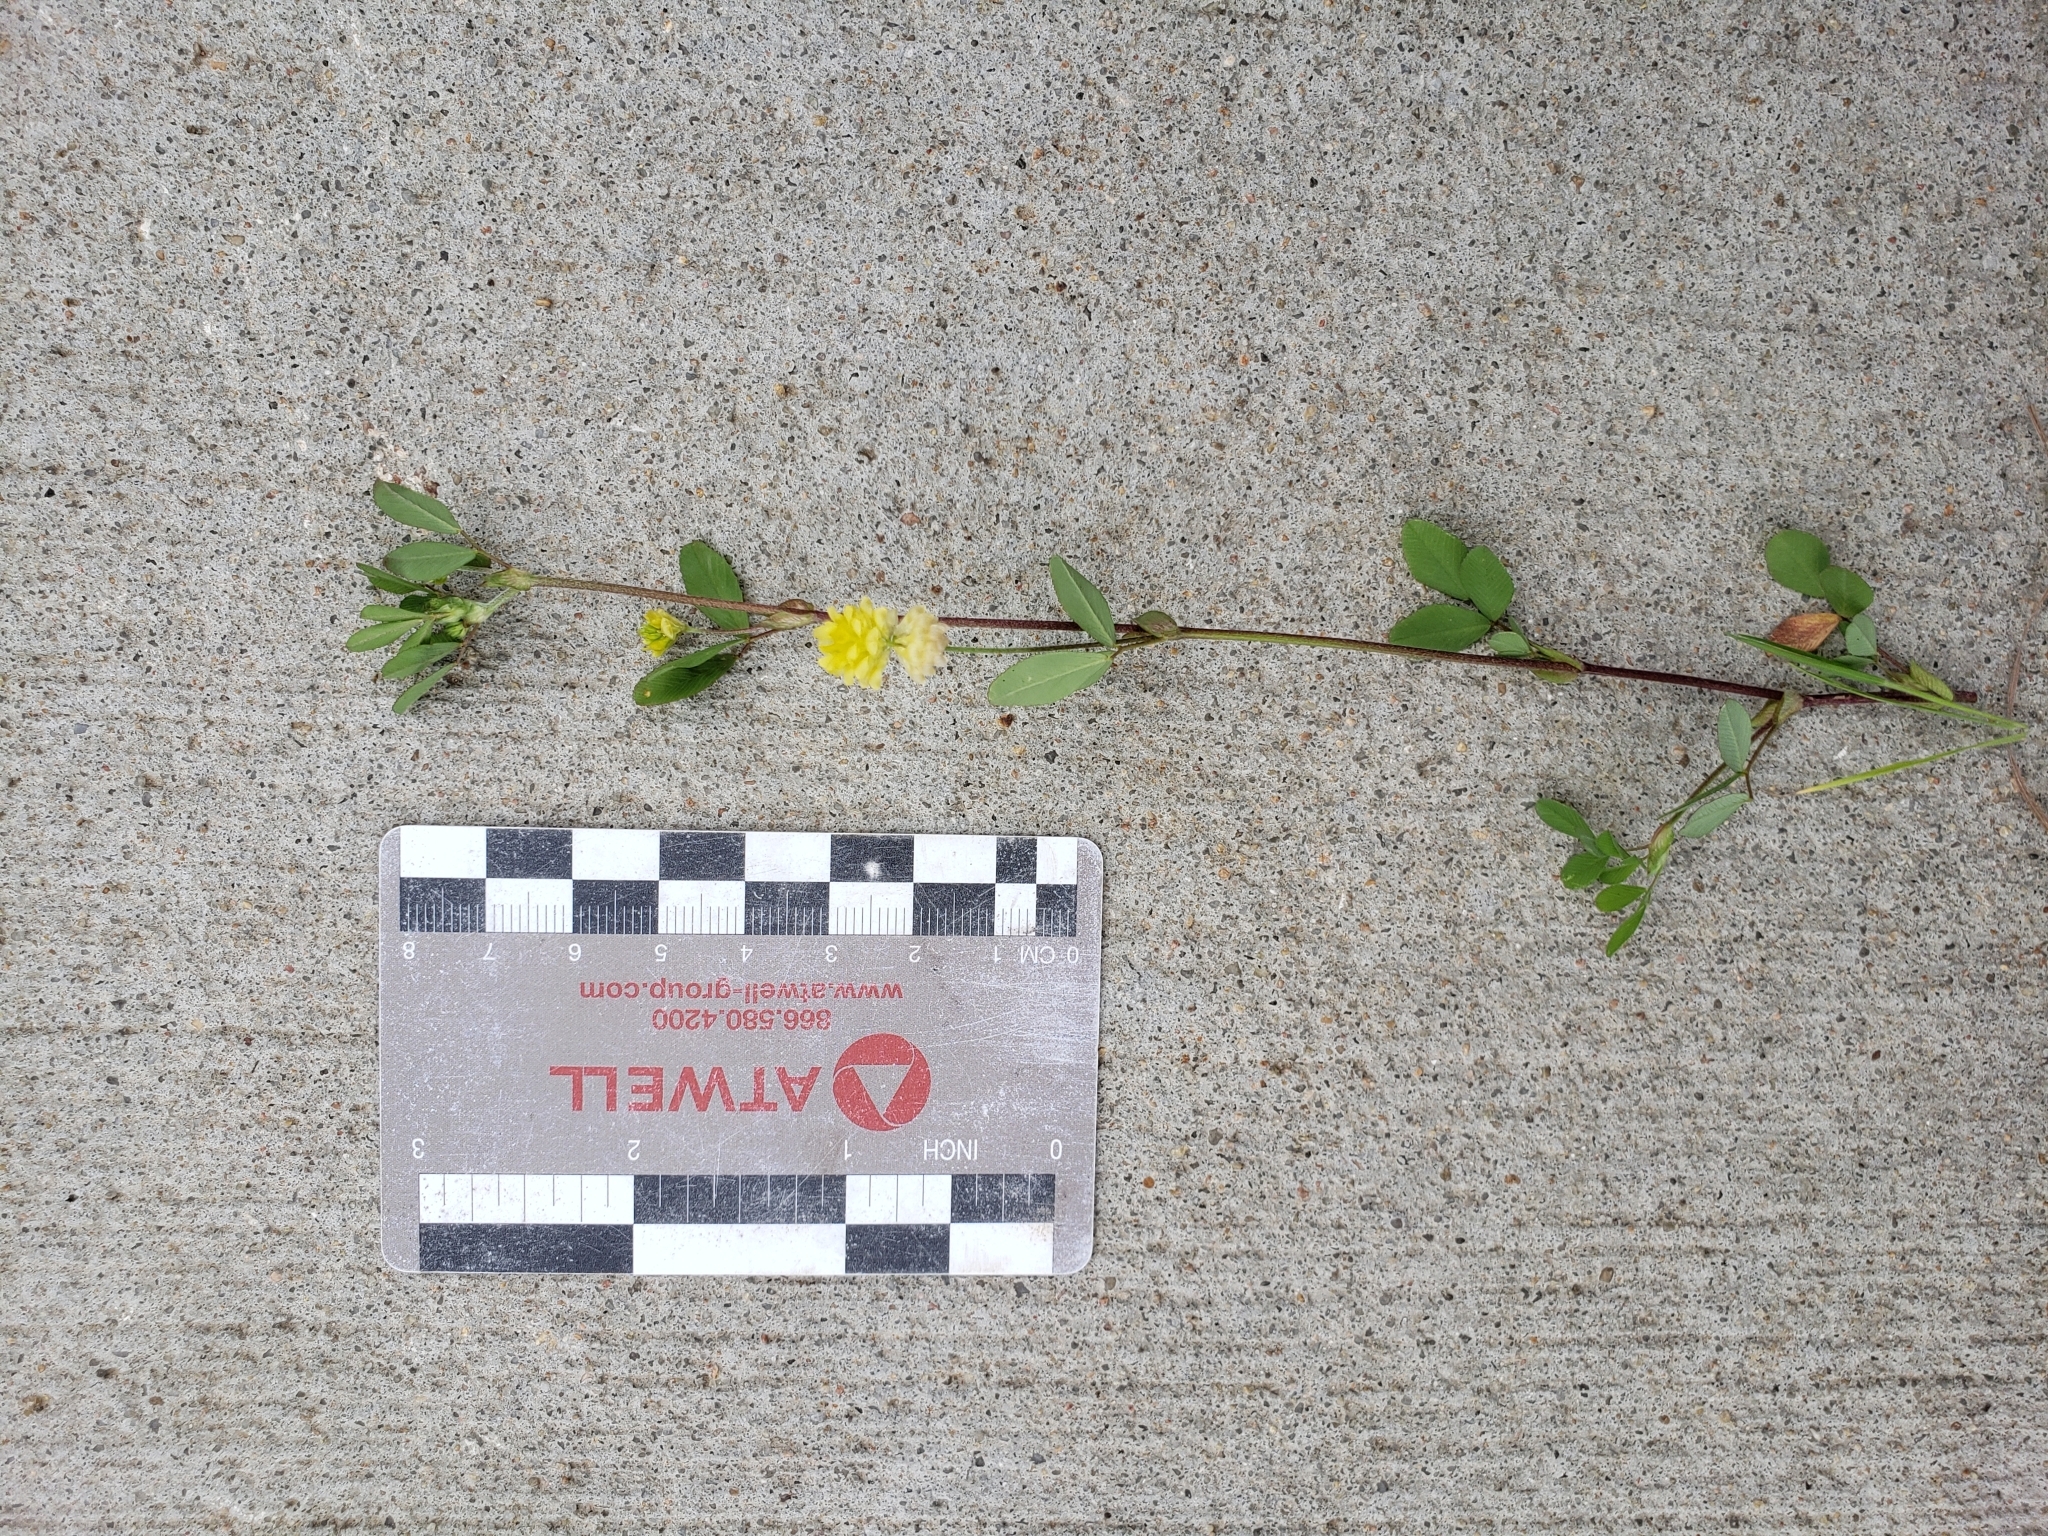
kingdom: Plantae
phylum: Tracheophyta
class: Magnoliopsida
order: Fabales
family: Fabaceae
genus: Trifolium
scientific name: Trifolium campestre
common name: Field clover
